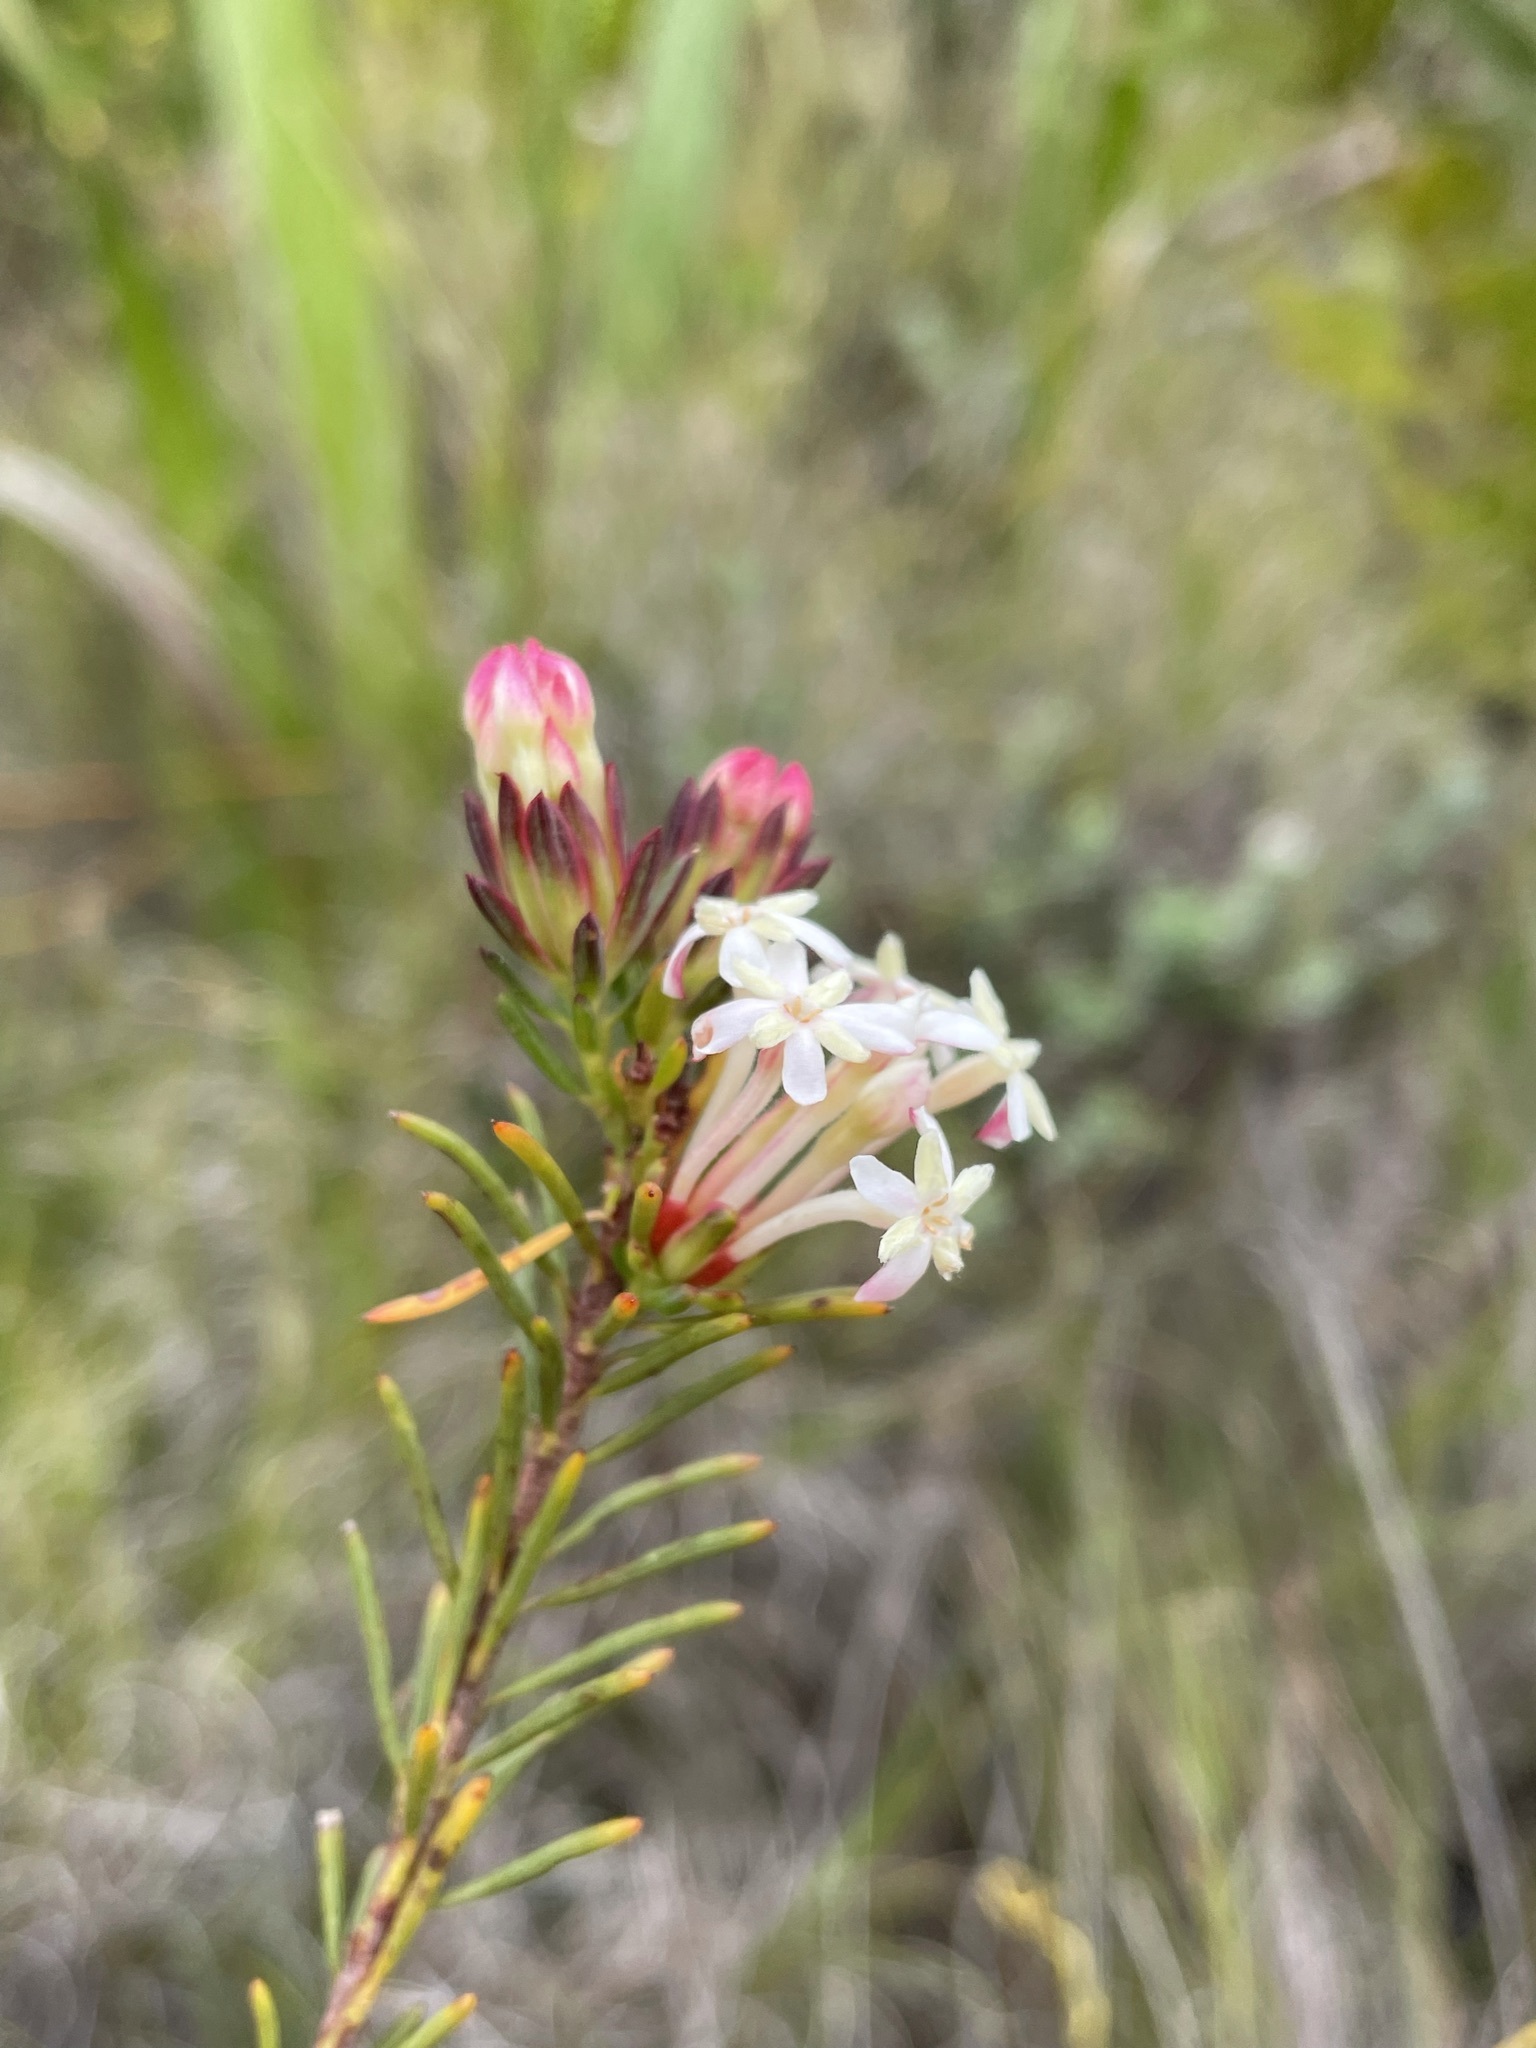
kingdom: Plantae
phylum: Tracheophyta
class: Magnoliopsida
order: Malvales
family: Thymelaeaceae
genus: Gnidia
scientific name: Gnidia pinifolia
